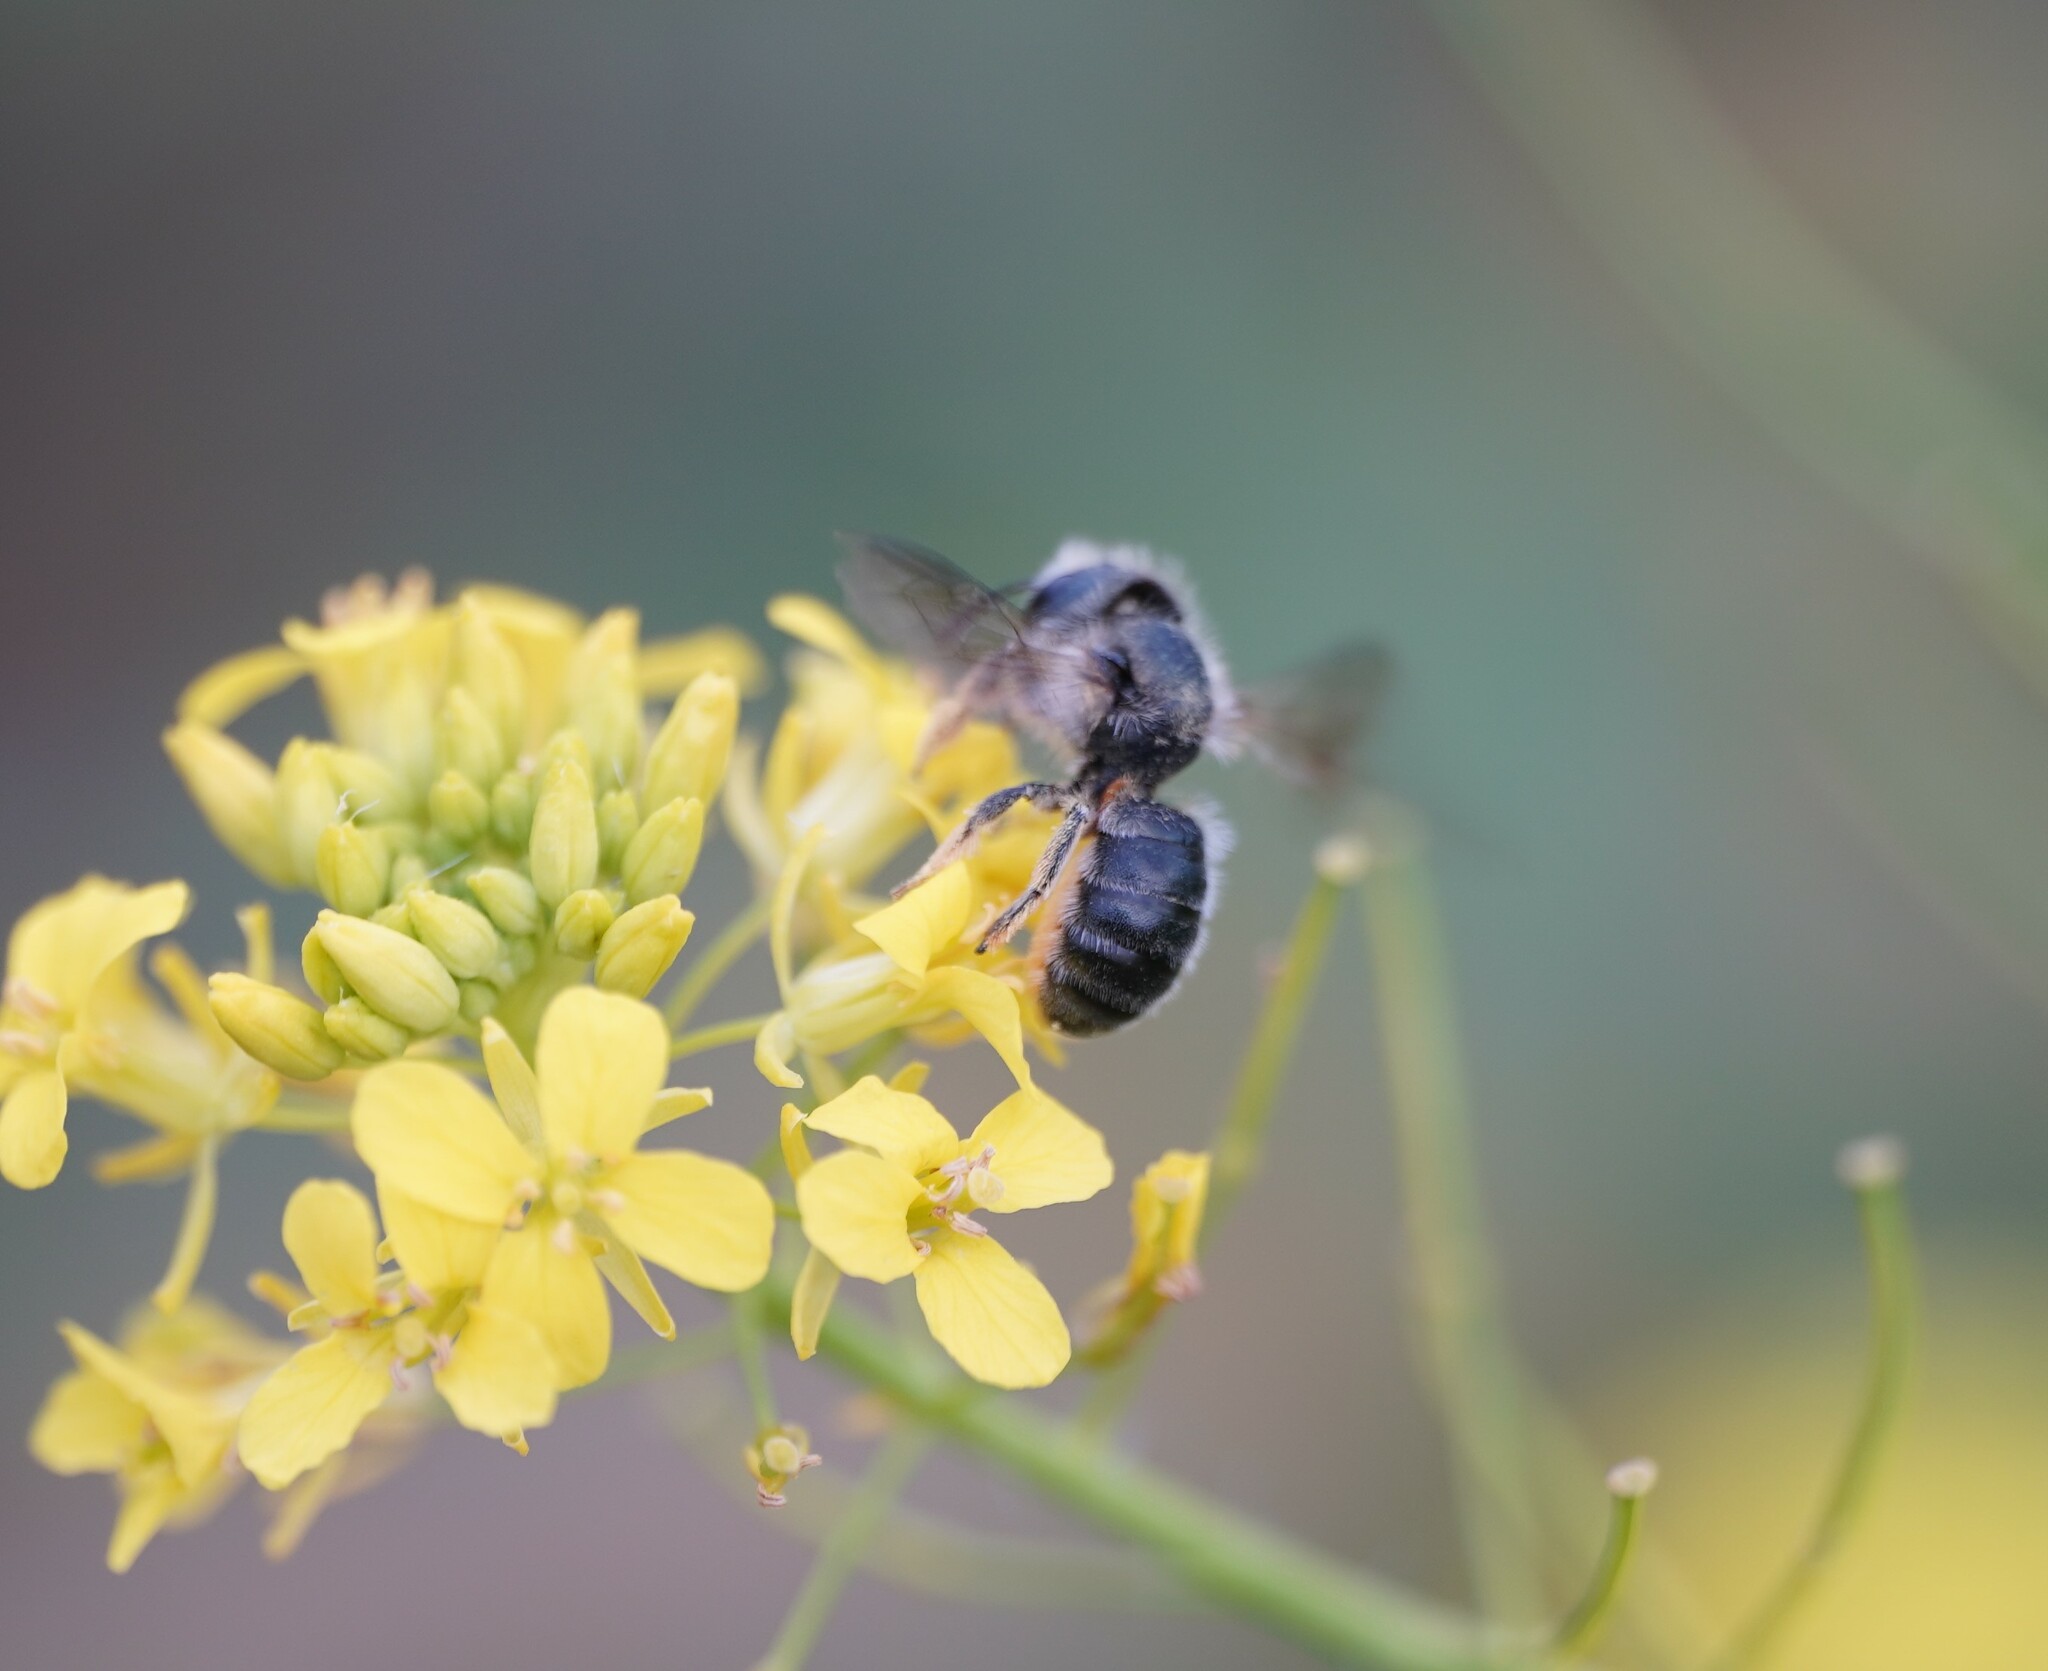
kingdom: Animalia
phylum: Arthropoda
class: Insecta
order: Hymenoptera
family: Megachilidae
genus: Osmia
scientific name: Osmia brevicornis
